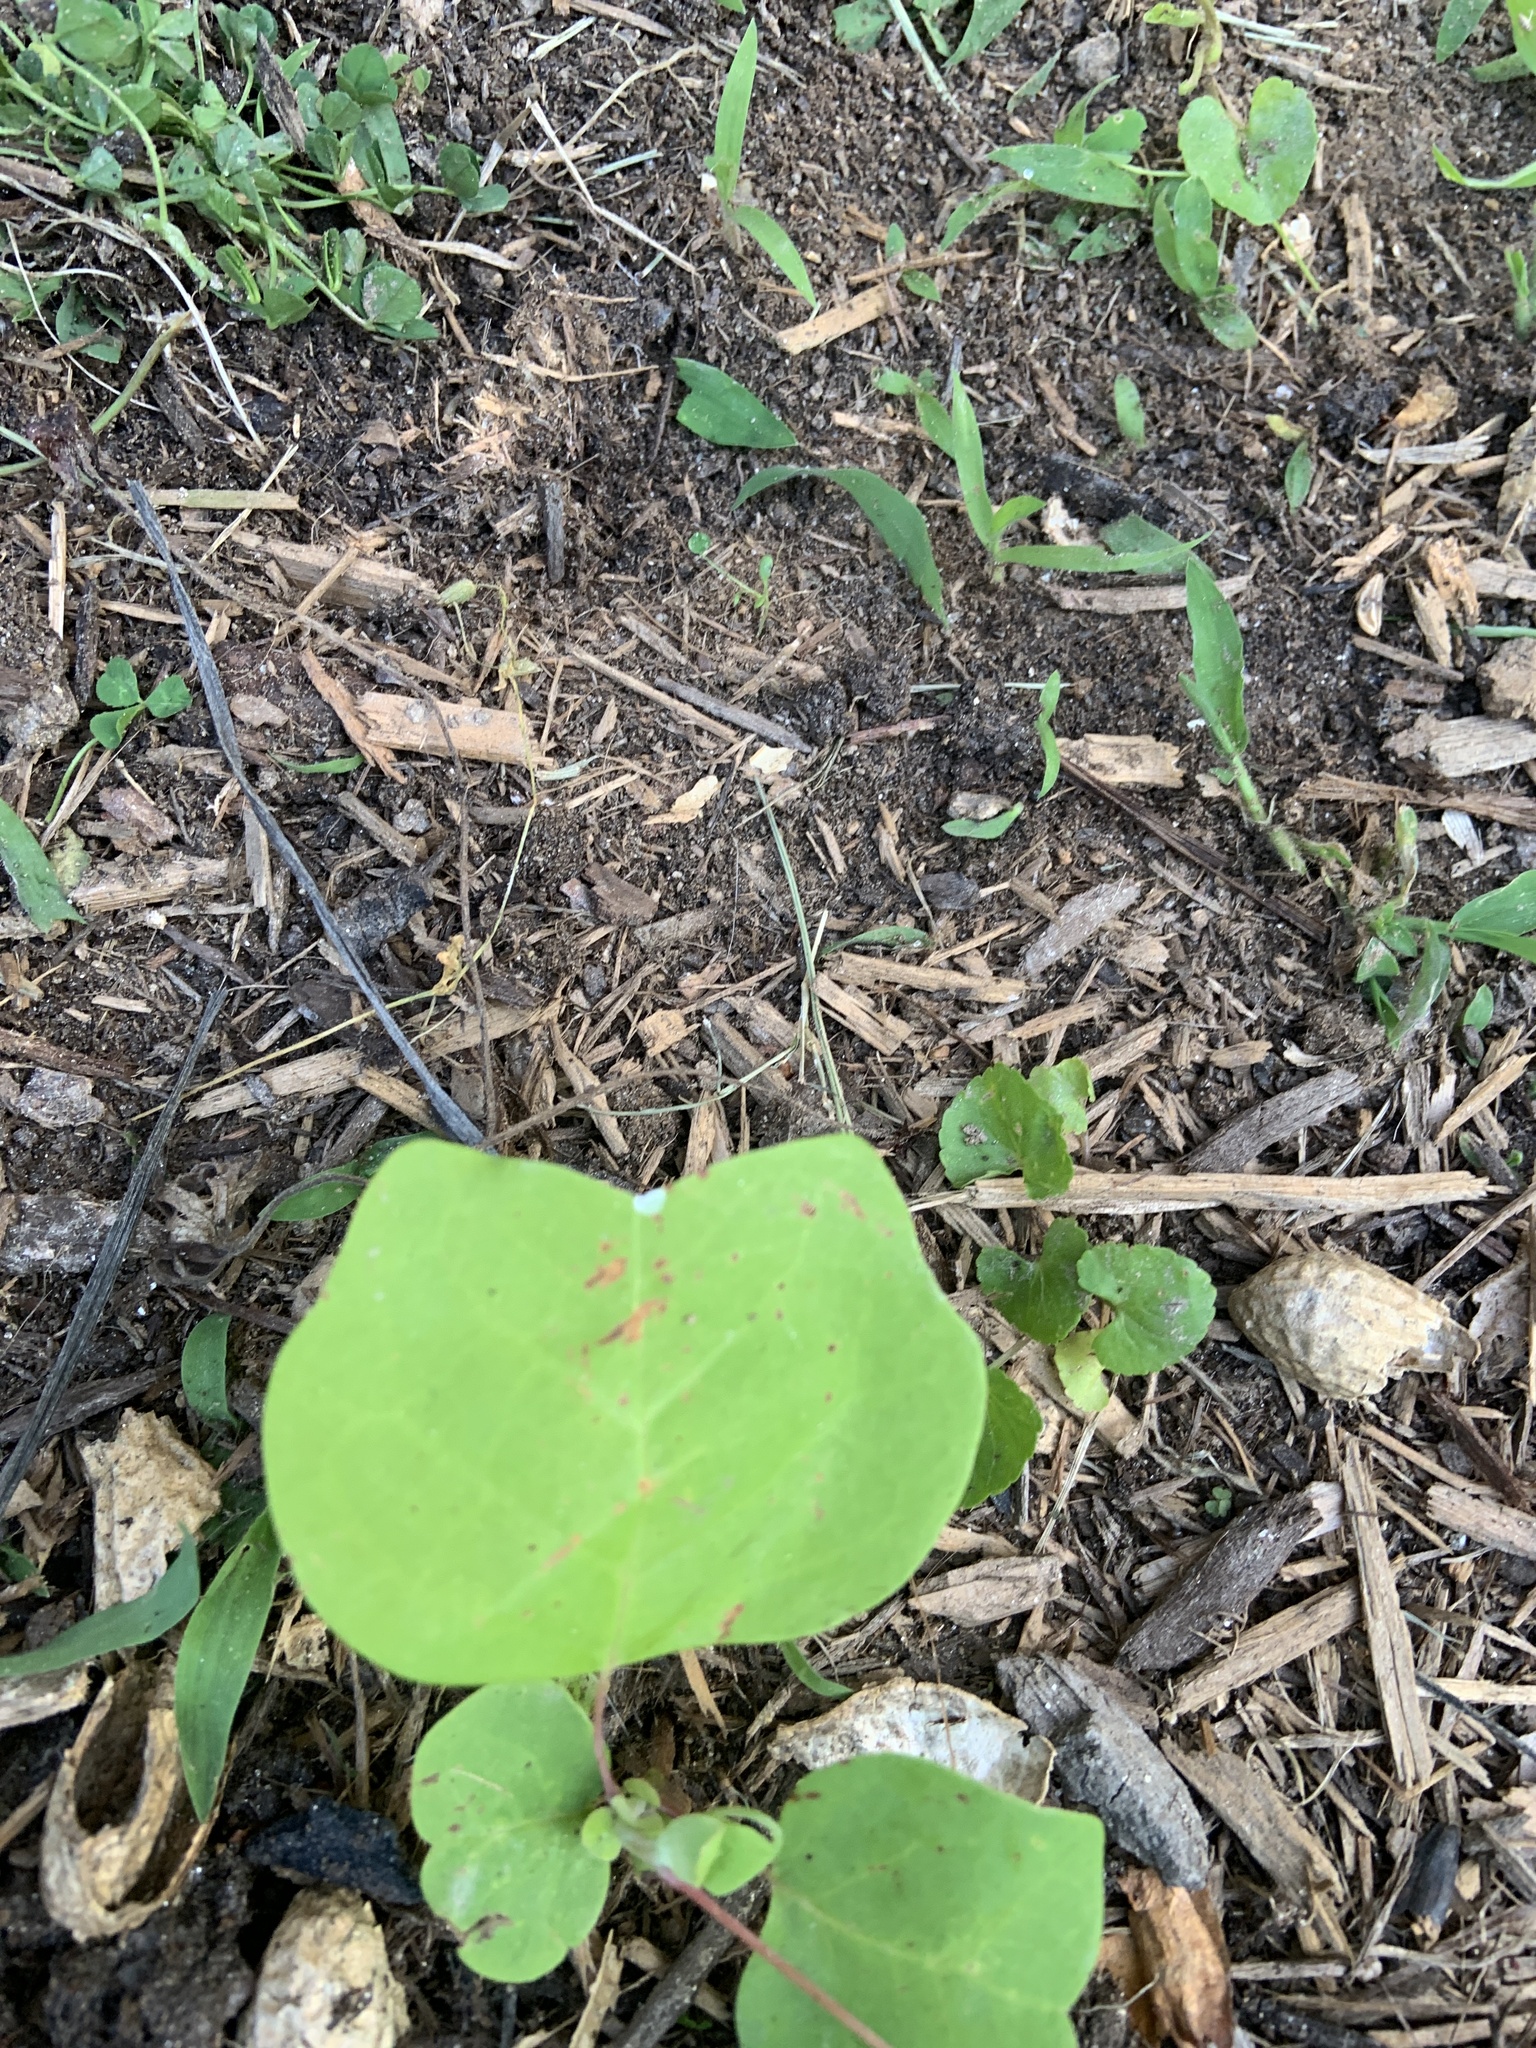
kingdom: Plantae
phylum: Tracheophyta
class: Magnoliopsida
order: Magnoliales
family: Magnoliaceae
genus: Liriodendron
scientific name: Liriodendron tulipifera
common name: Tulip tree
